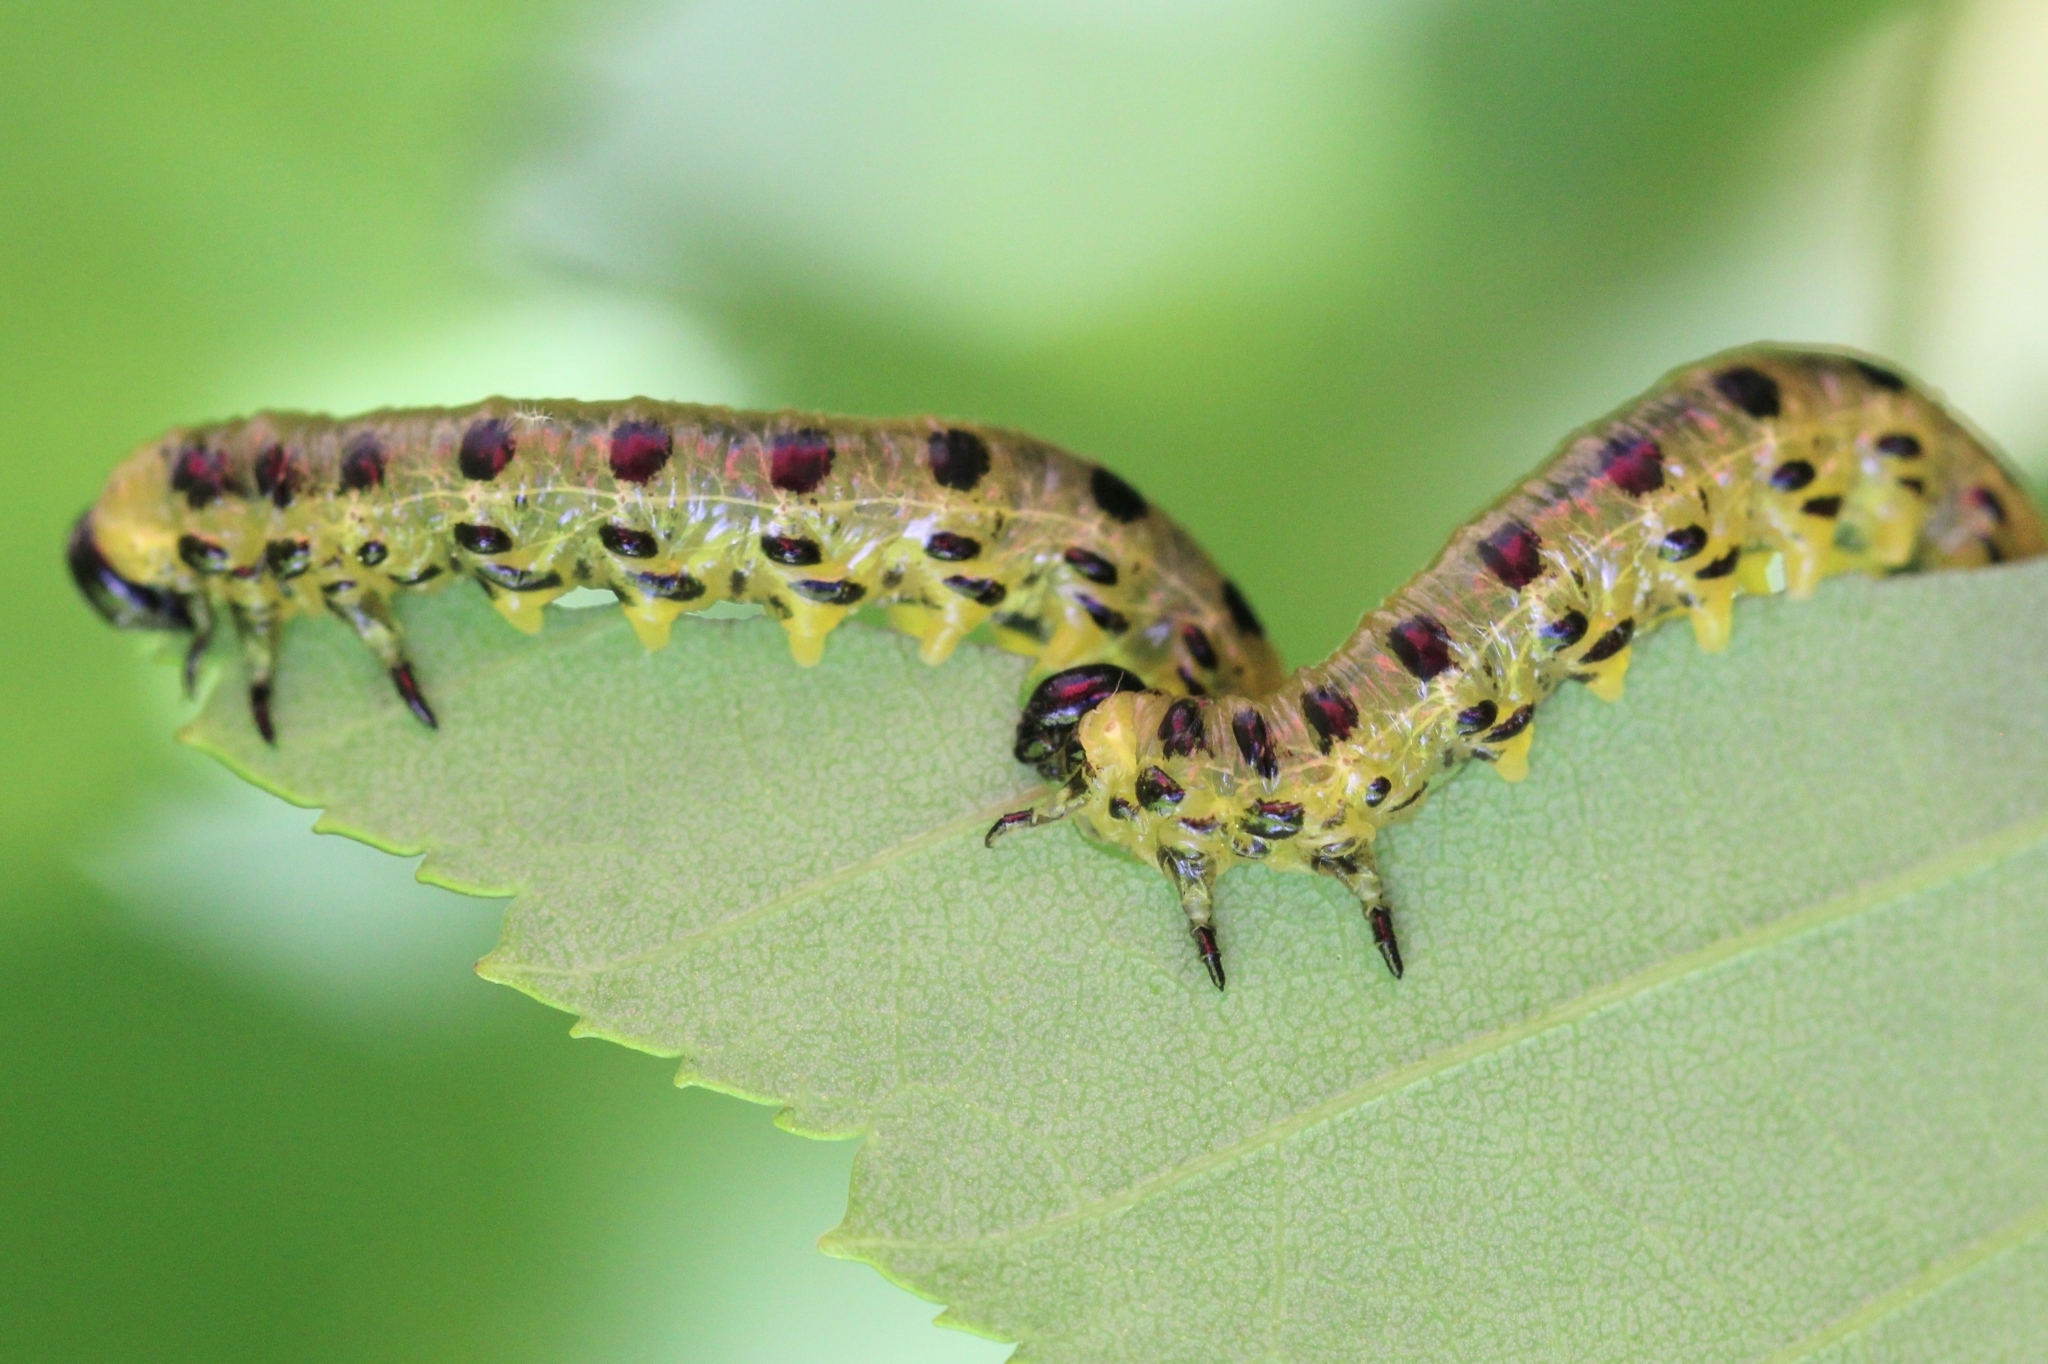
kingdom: Animalia
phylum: Arthropoda
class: Insecta
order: Hymenoptera
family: Tenthredinidae
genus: Nematus
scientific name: Nematus
